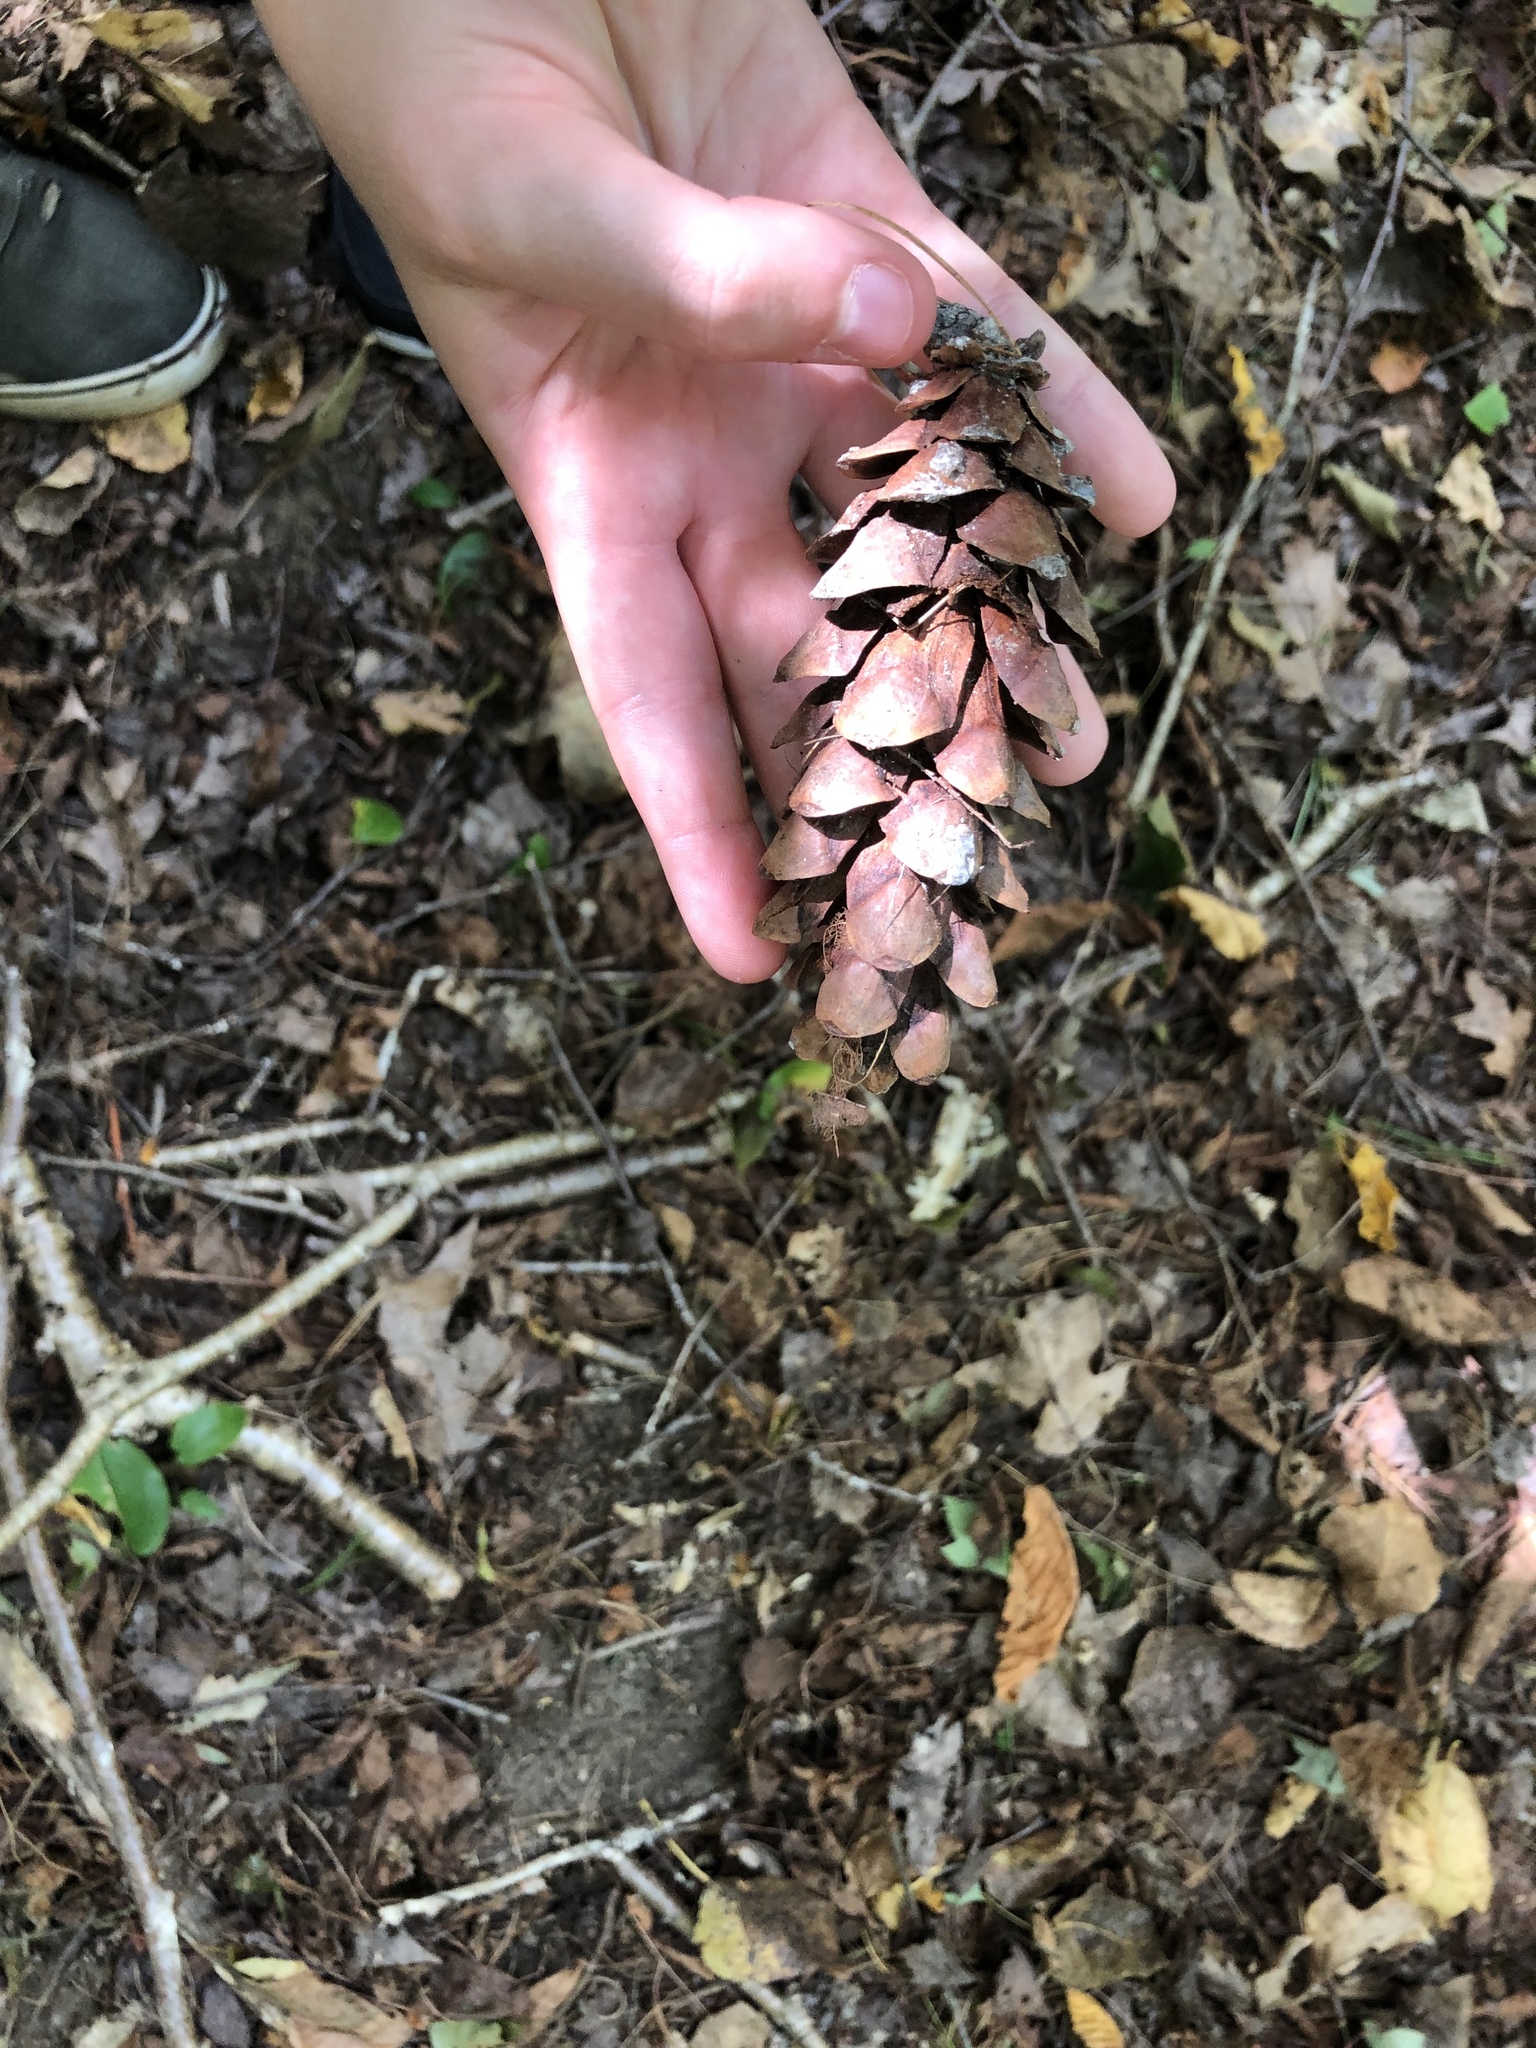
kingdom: Plantae
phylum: Tracheophyta
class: Pinopsida
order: Pinales
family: Pinaceae
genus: Pinus
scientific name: Pinus strobus
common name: Weymouth pine
